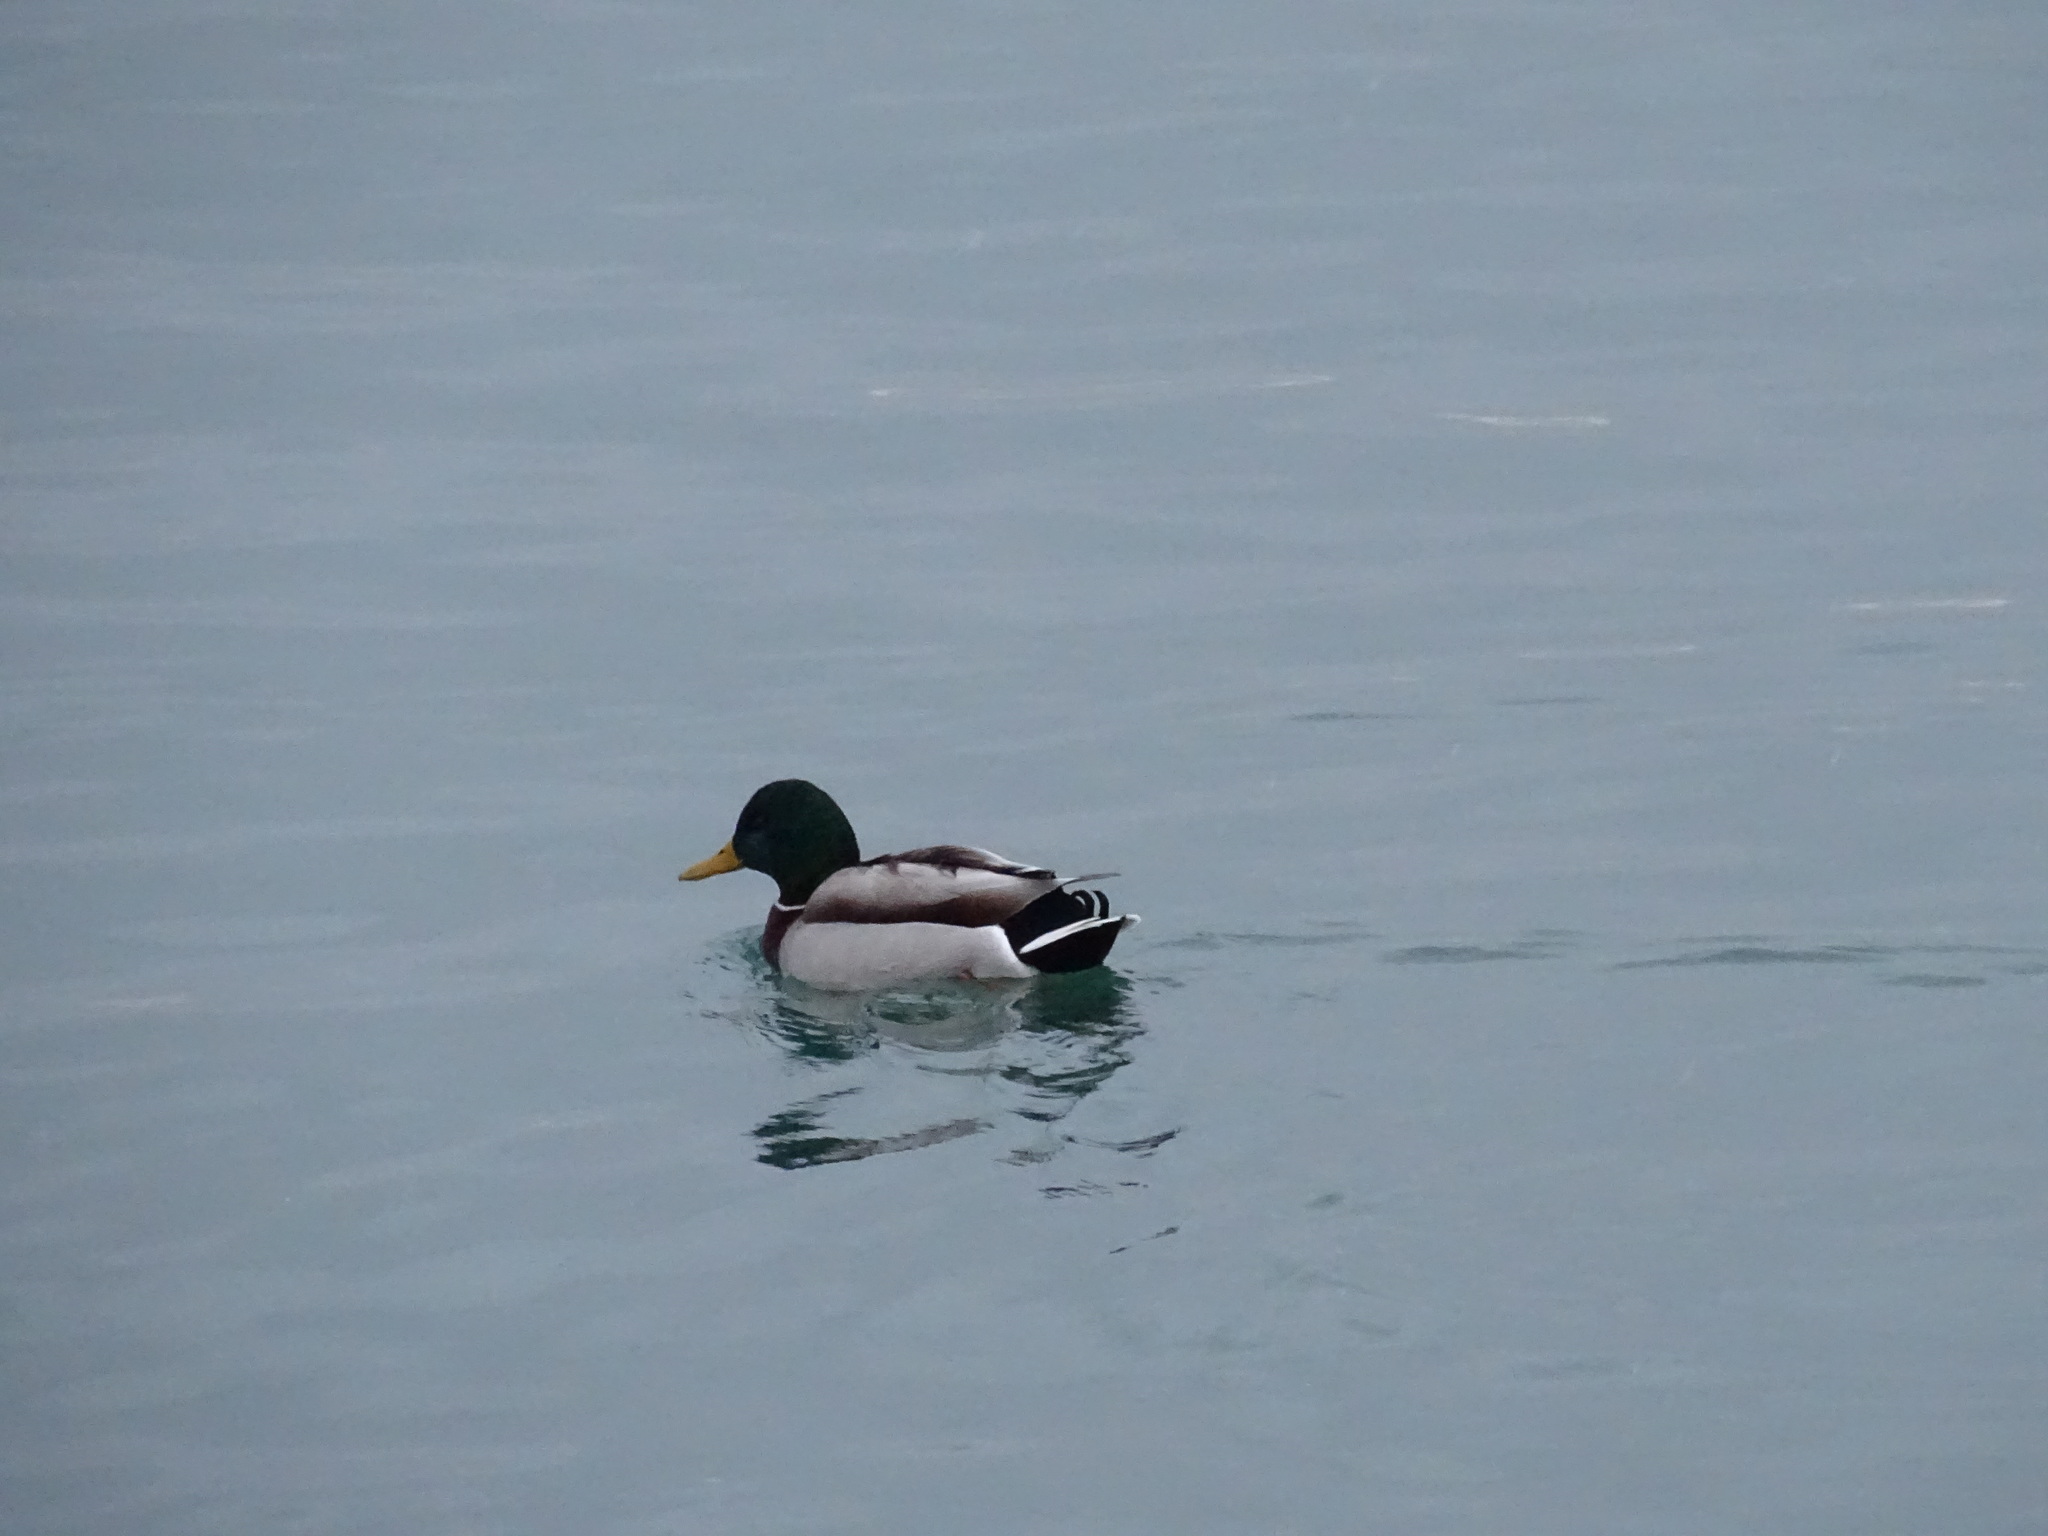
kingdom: Animalia
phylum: Chordata
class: Aves
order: Anseriformes
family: Anatidae
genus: Anas
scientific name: Anas platyrhynchos
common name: Mallard
